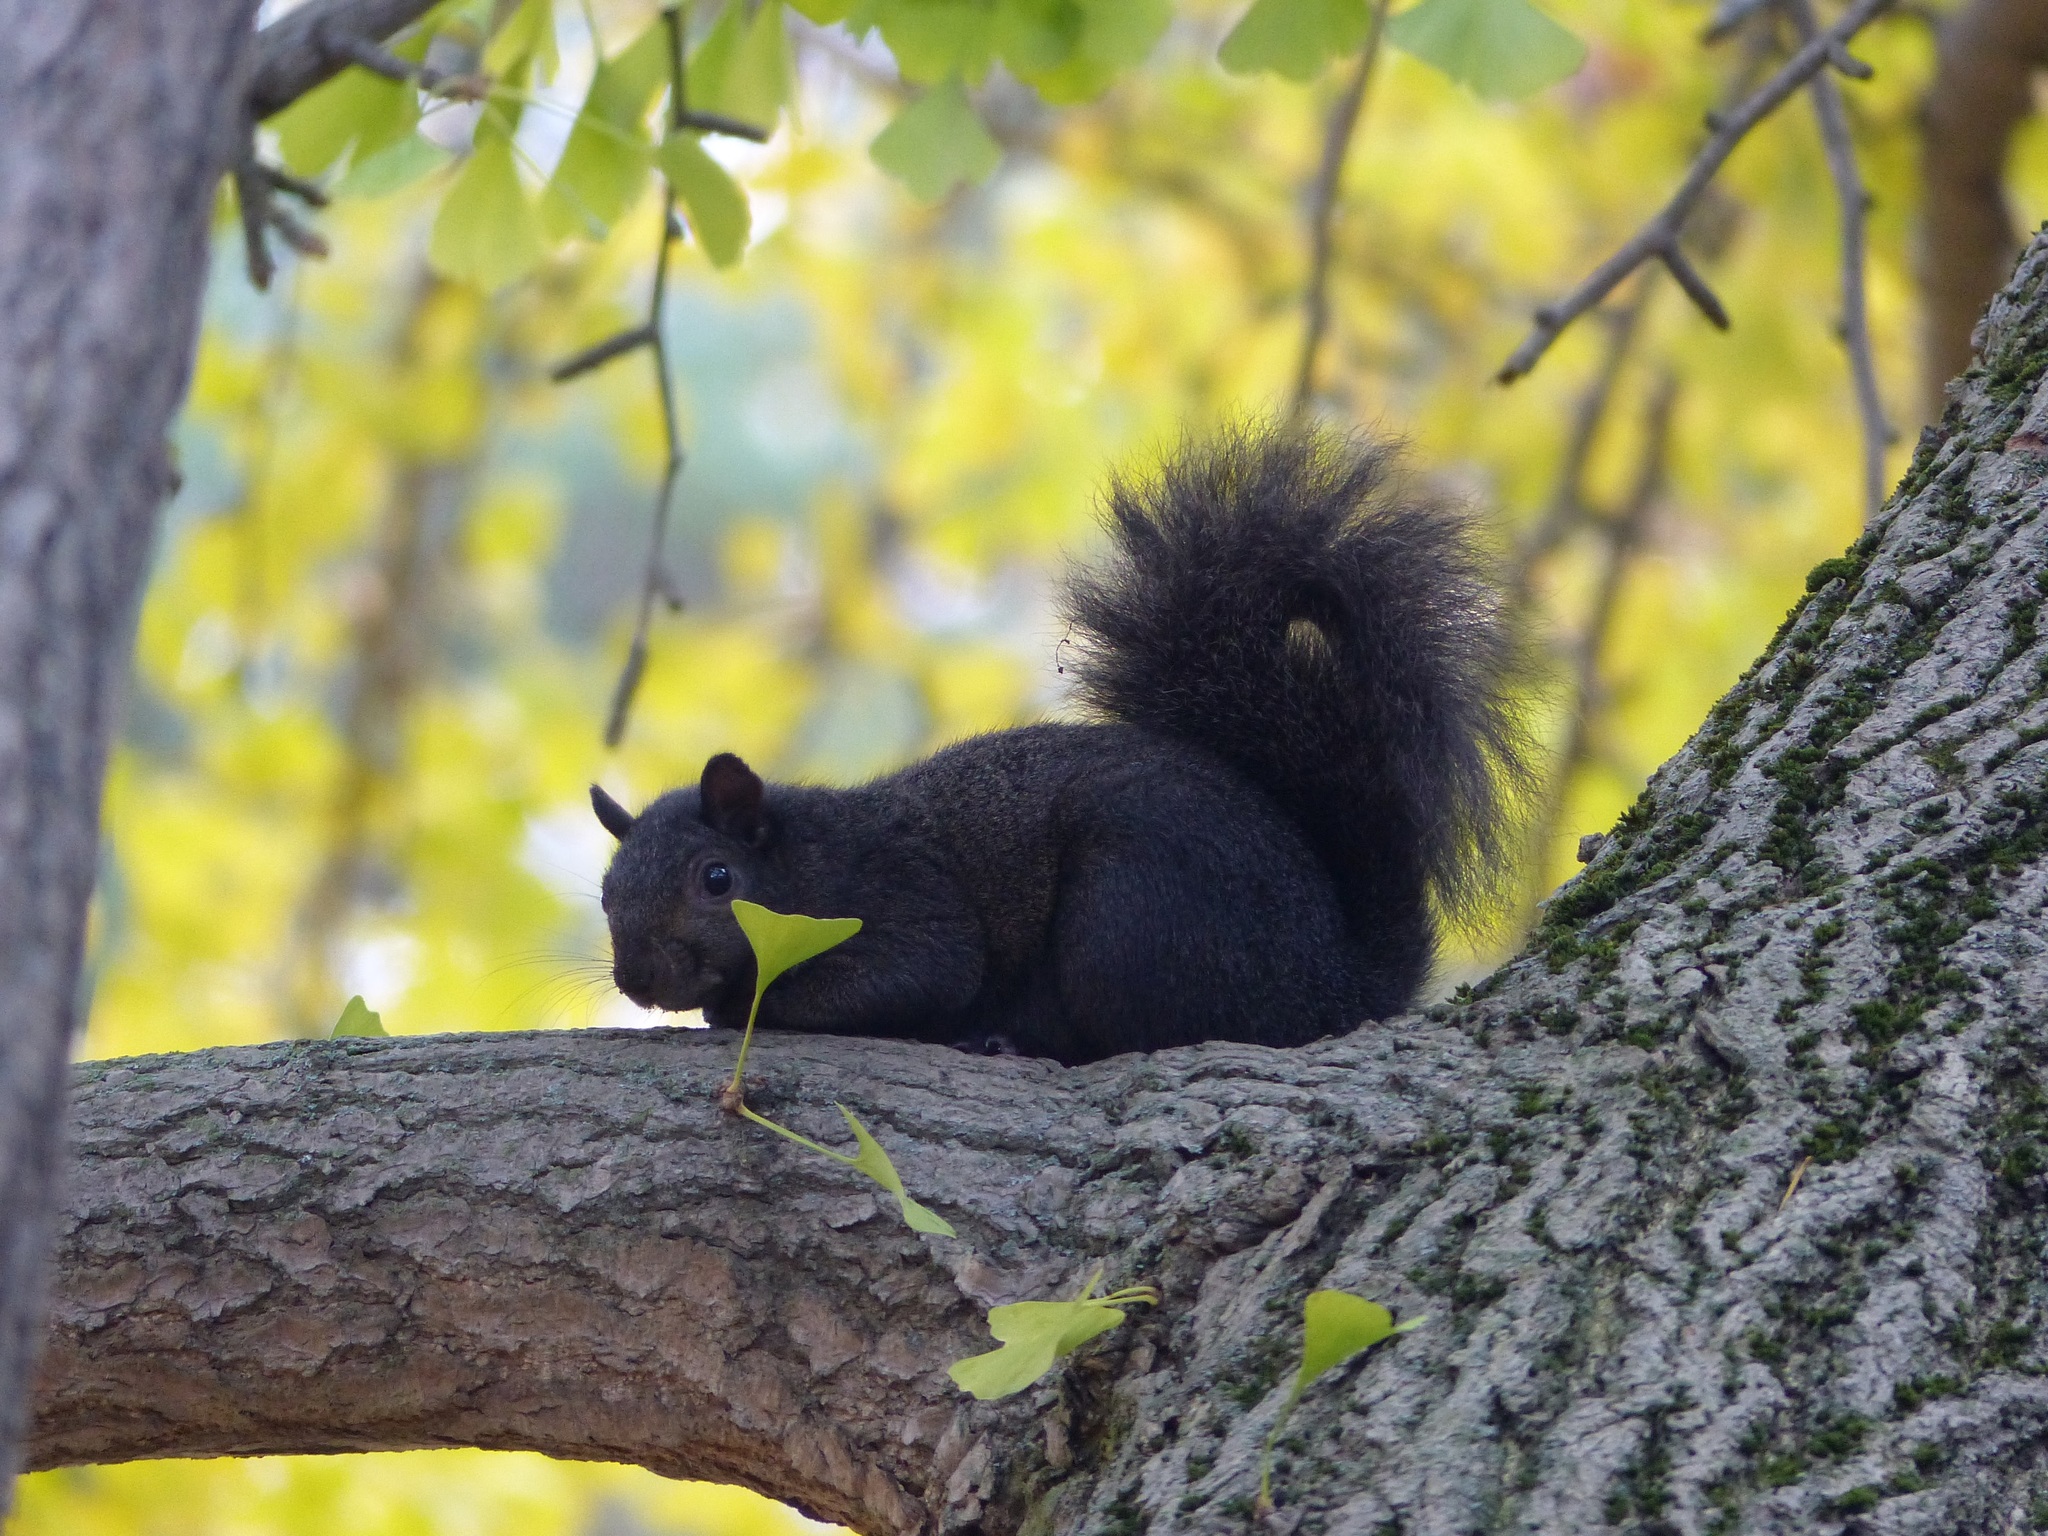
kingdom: Animalia
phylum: Chordata
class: Mammalia
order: Rodentia
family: Sciuridae
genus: Sciurus
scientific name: Sciurus carolinensis
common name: Eastern gray squirrel
